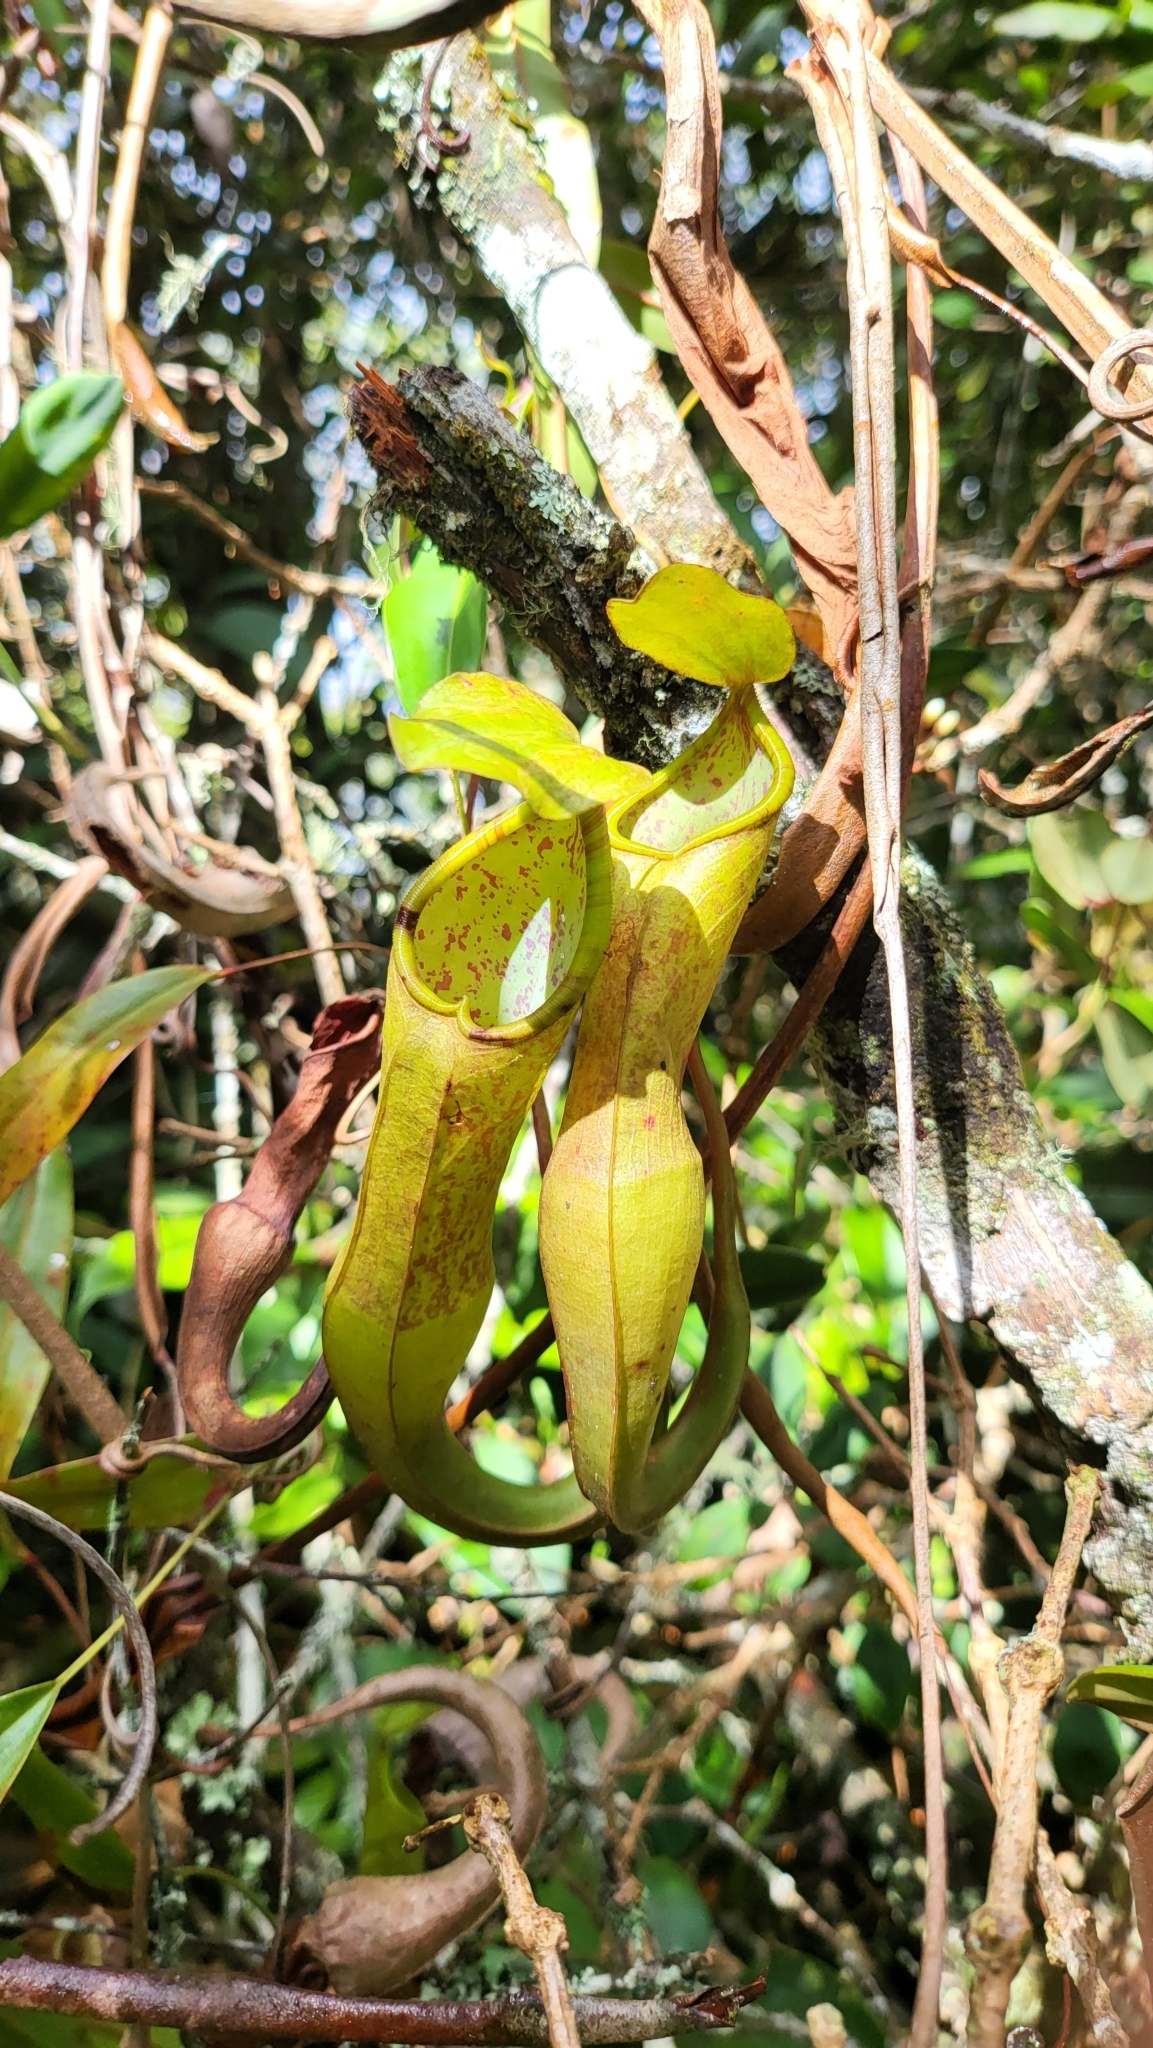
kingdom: Plantae
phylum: Tracheophyta
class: Magnoliopsida
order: Caryophyllales
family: Nepenthaceae
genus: Nepenthes
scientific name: Nepenthes sanguinea
